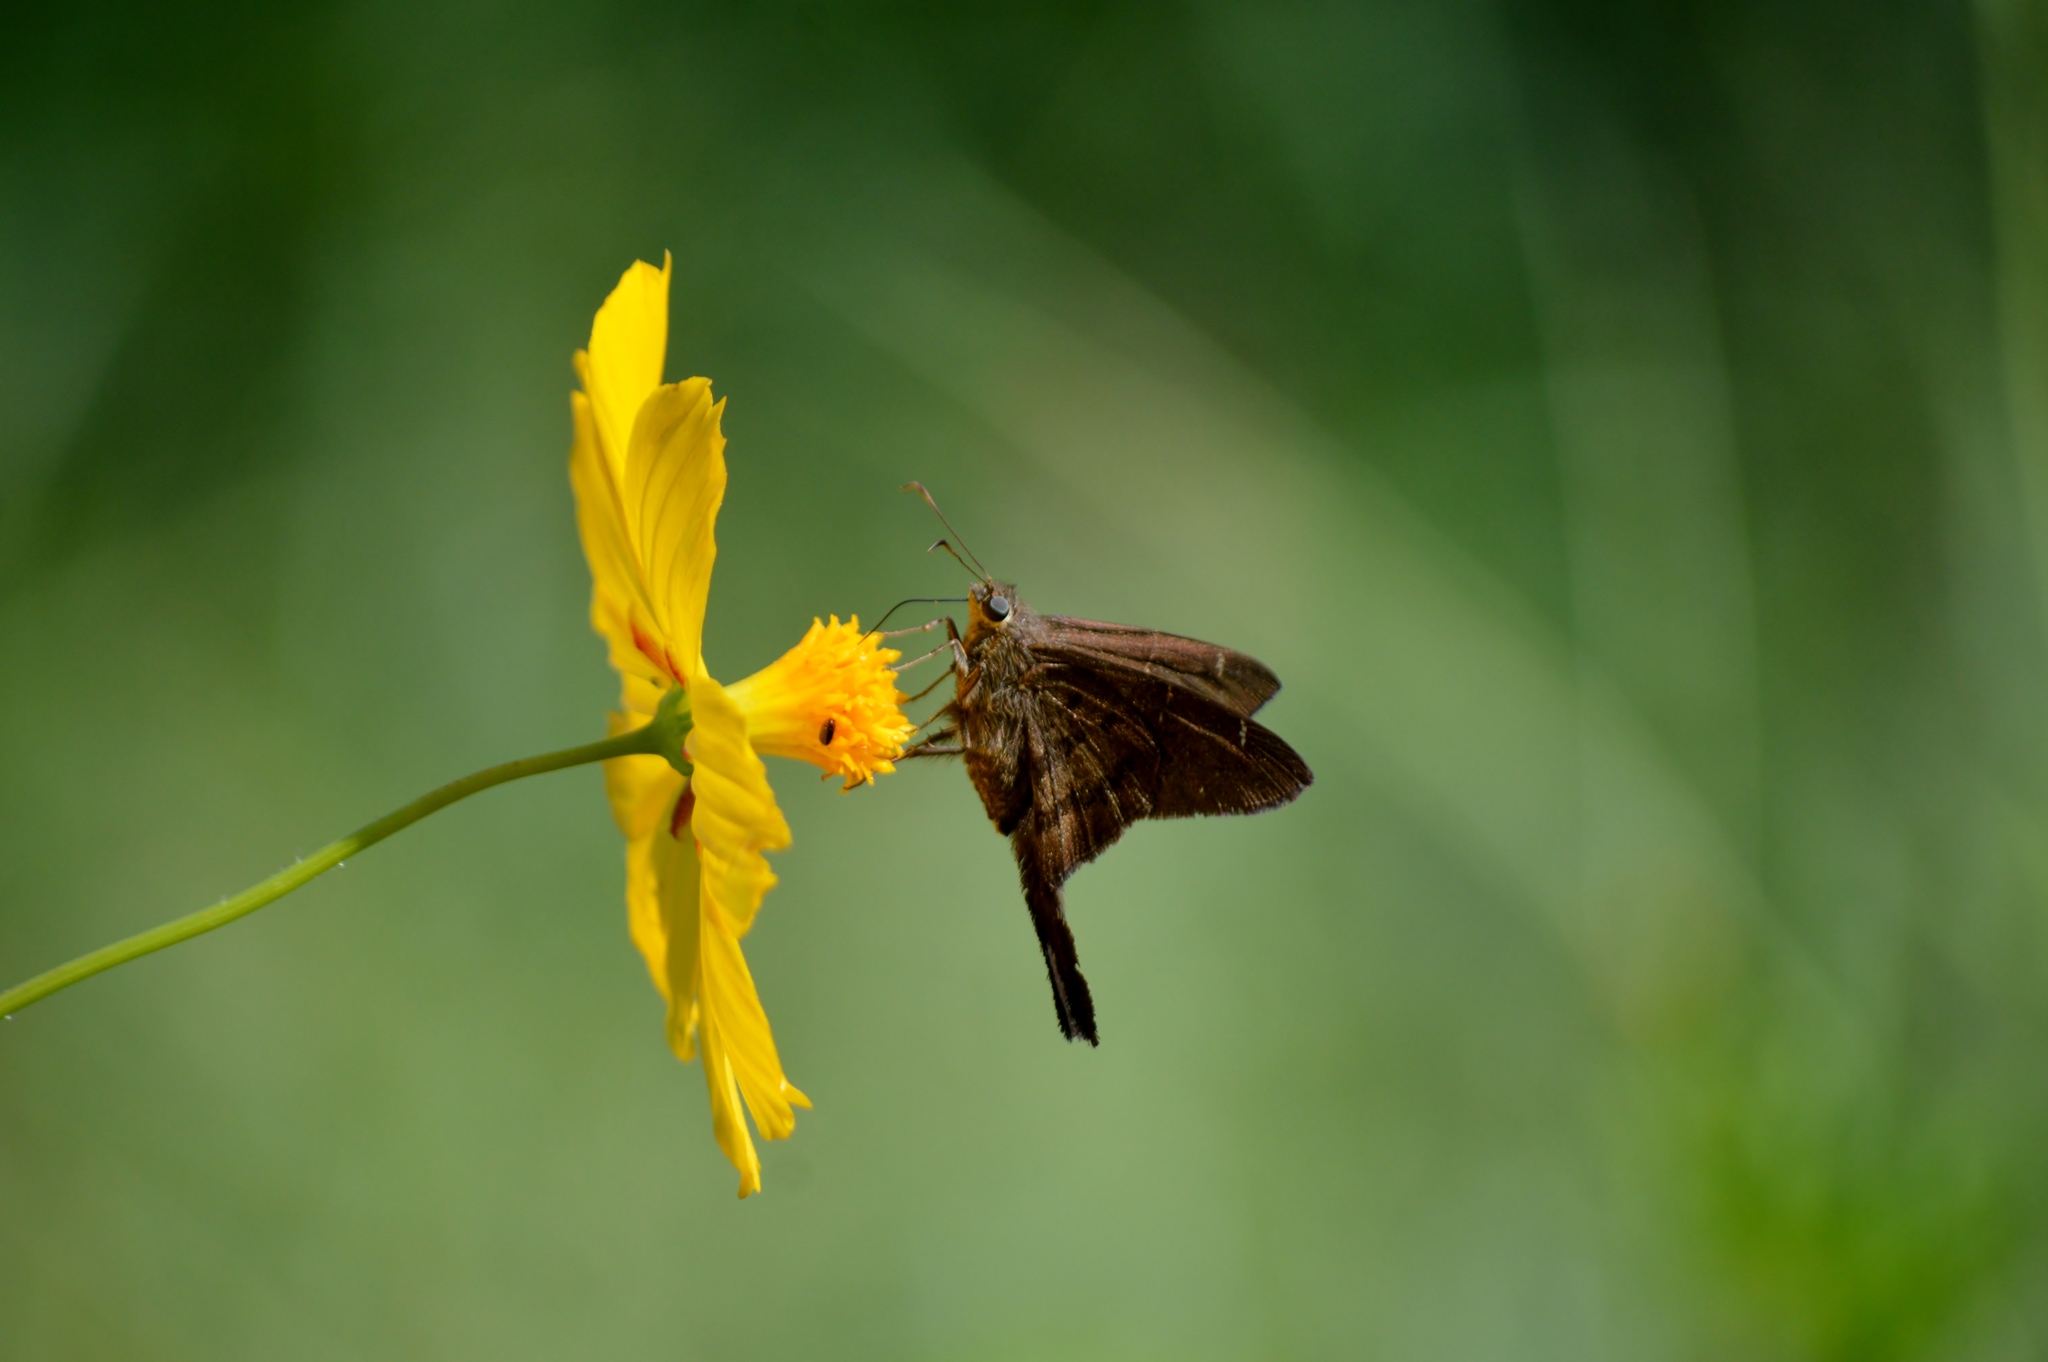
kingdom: Animalia
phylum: Arthropoda
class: Insecta
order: Lepidoptera
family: Hesperiidae
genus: Urbanus
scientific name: Urbanus procne
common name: Brown longtail
